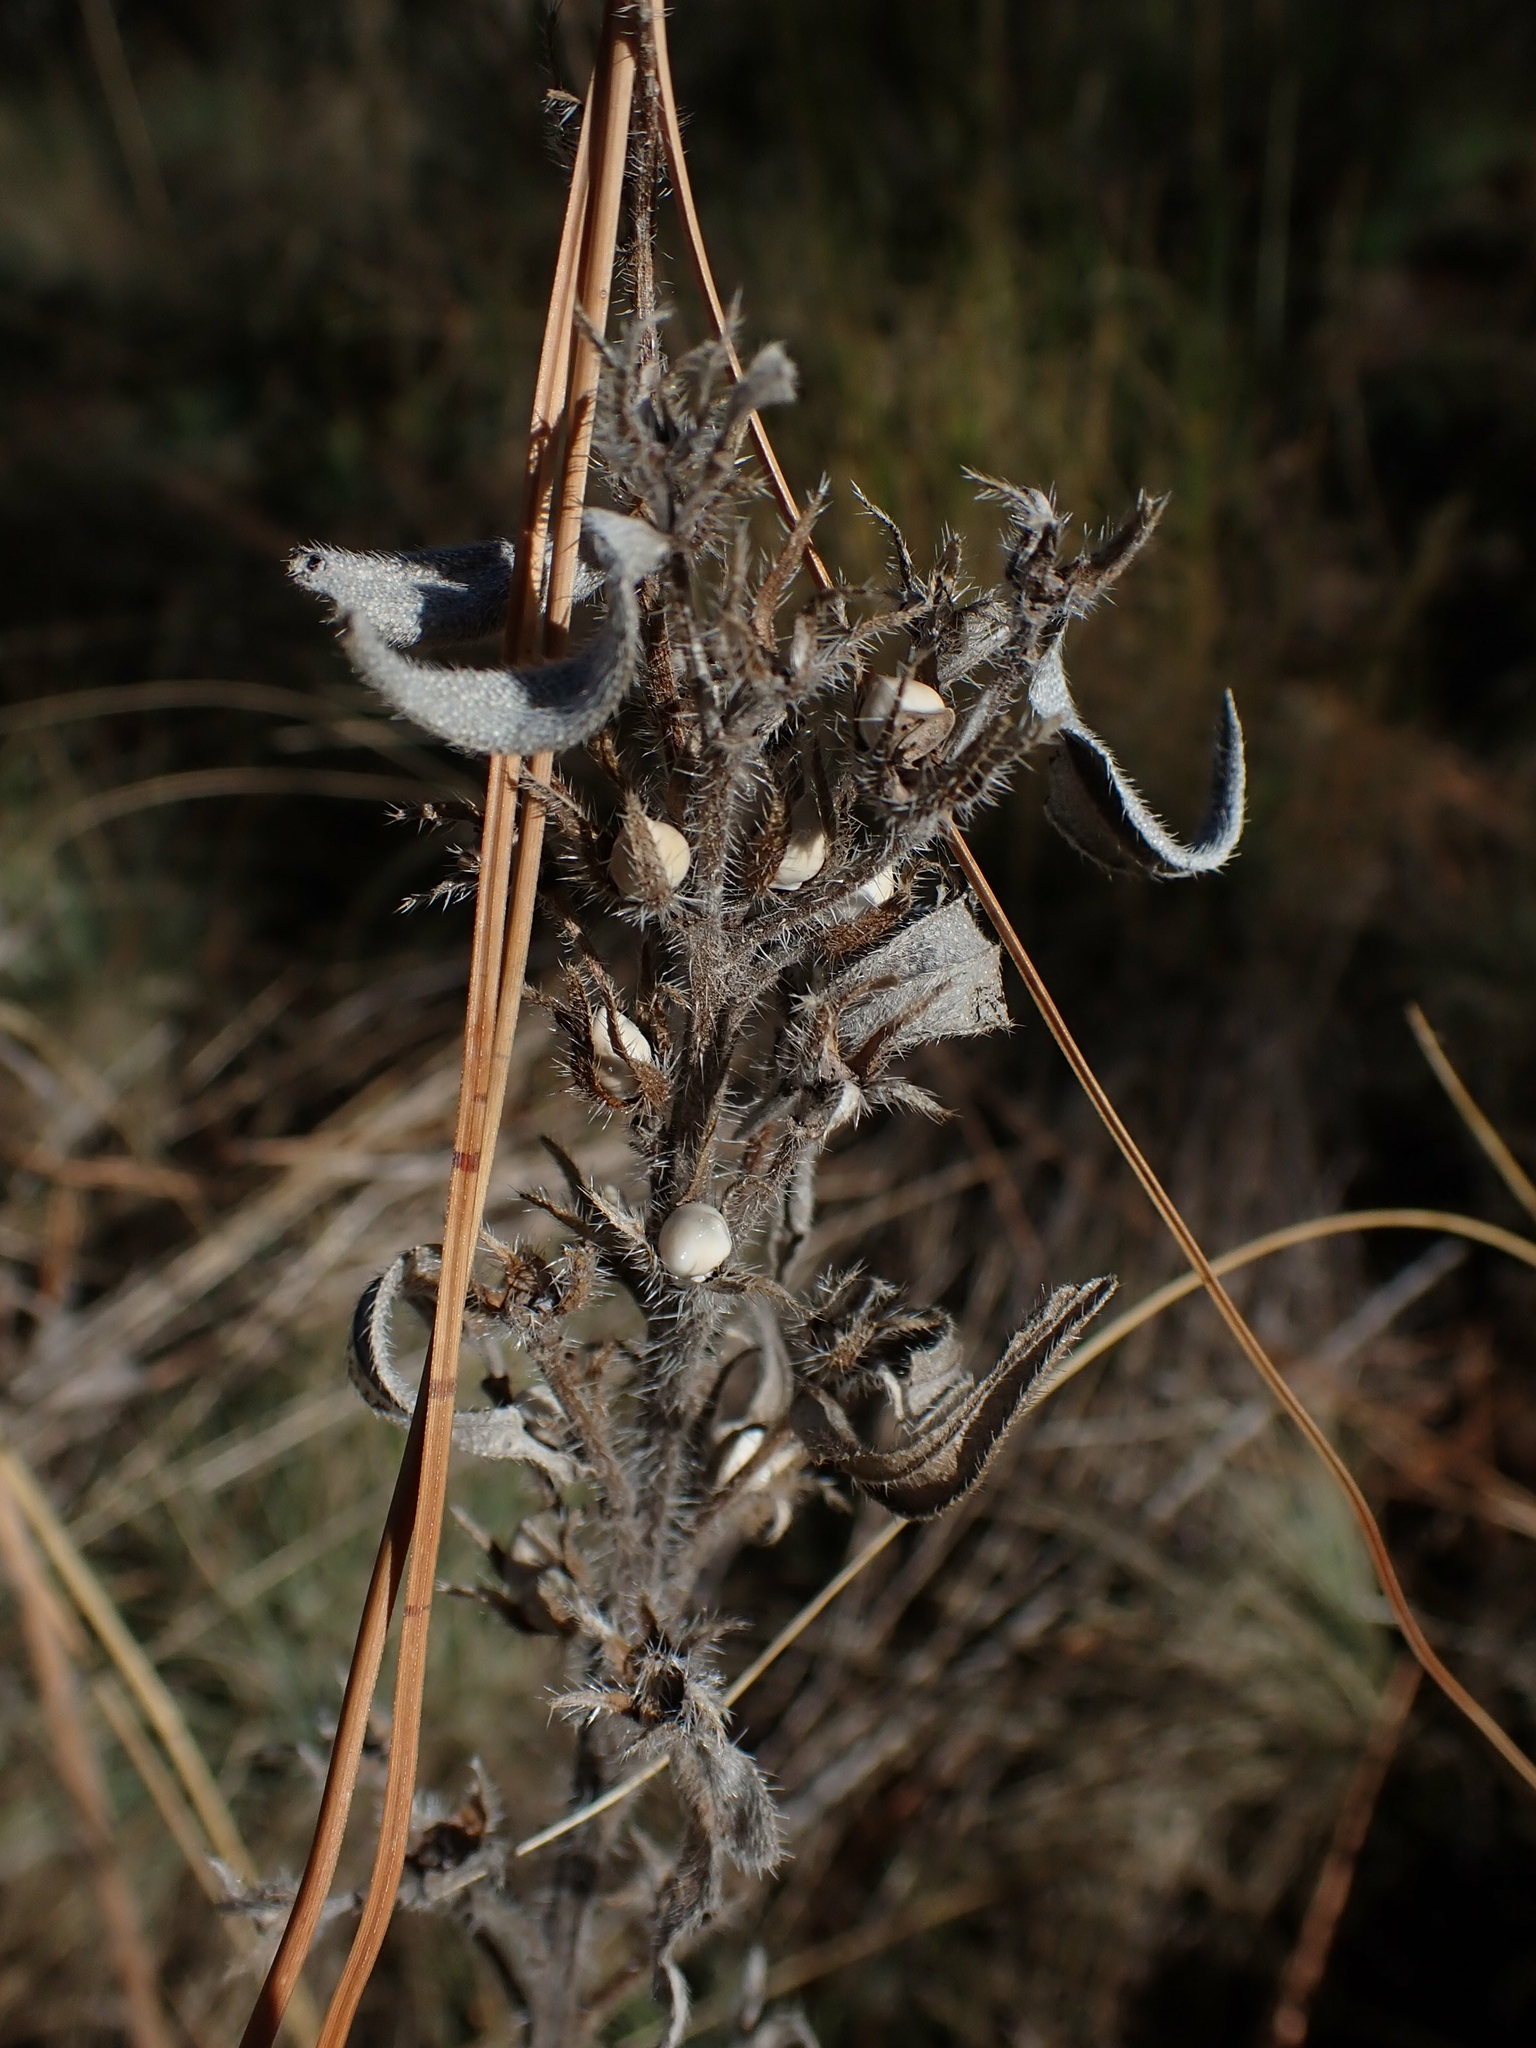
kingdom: Plantae
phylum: Tracheophyta
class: Magnoliopsida
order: Boraginales
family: Boraginaceae
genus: Lithospermum
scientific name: Lithospermum ruderale
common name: Western gromwell
